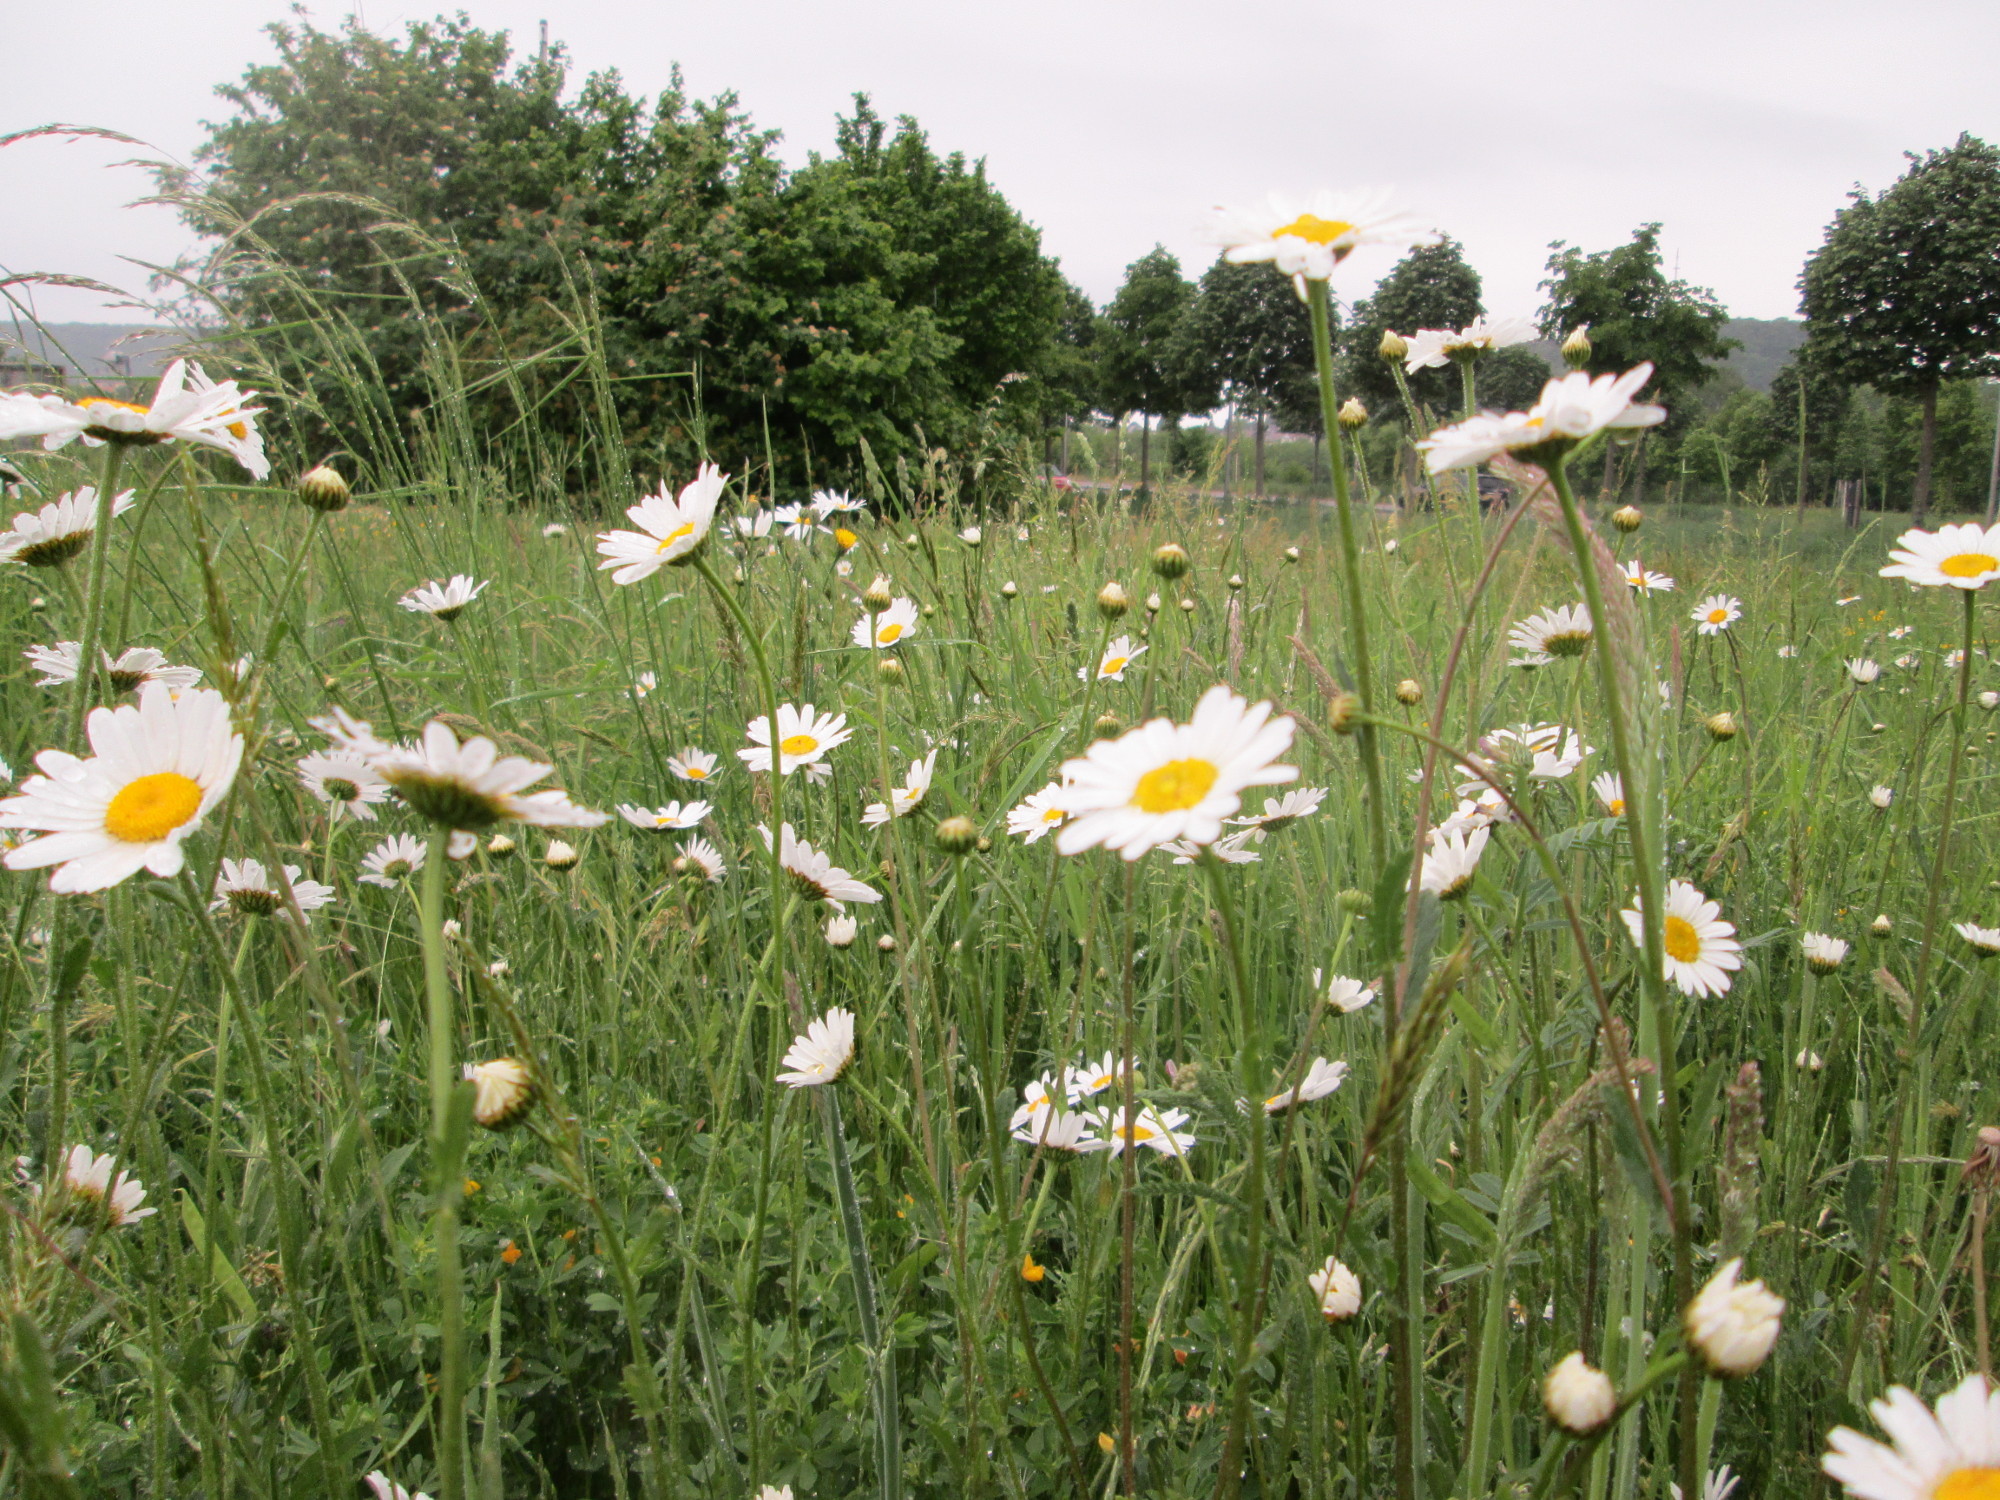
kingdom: Plantae
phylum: Tracheophyta
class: Magnoliopsida
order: Asterales
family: Asteraceae
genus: Leucanthemum
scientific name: Leucanthemum vulgare
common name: Oxeye daisy
